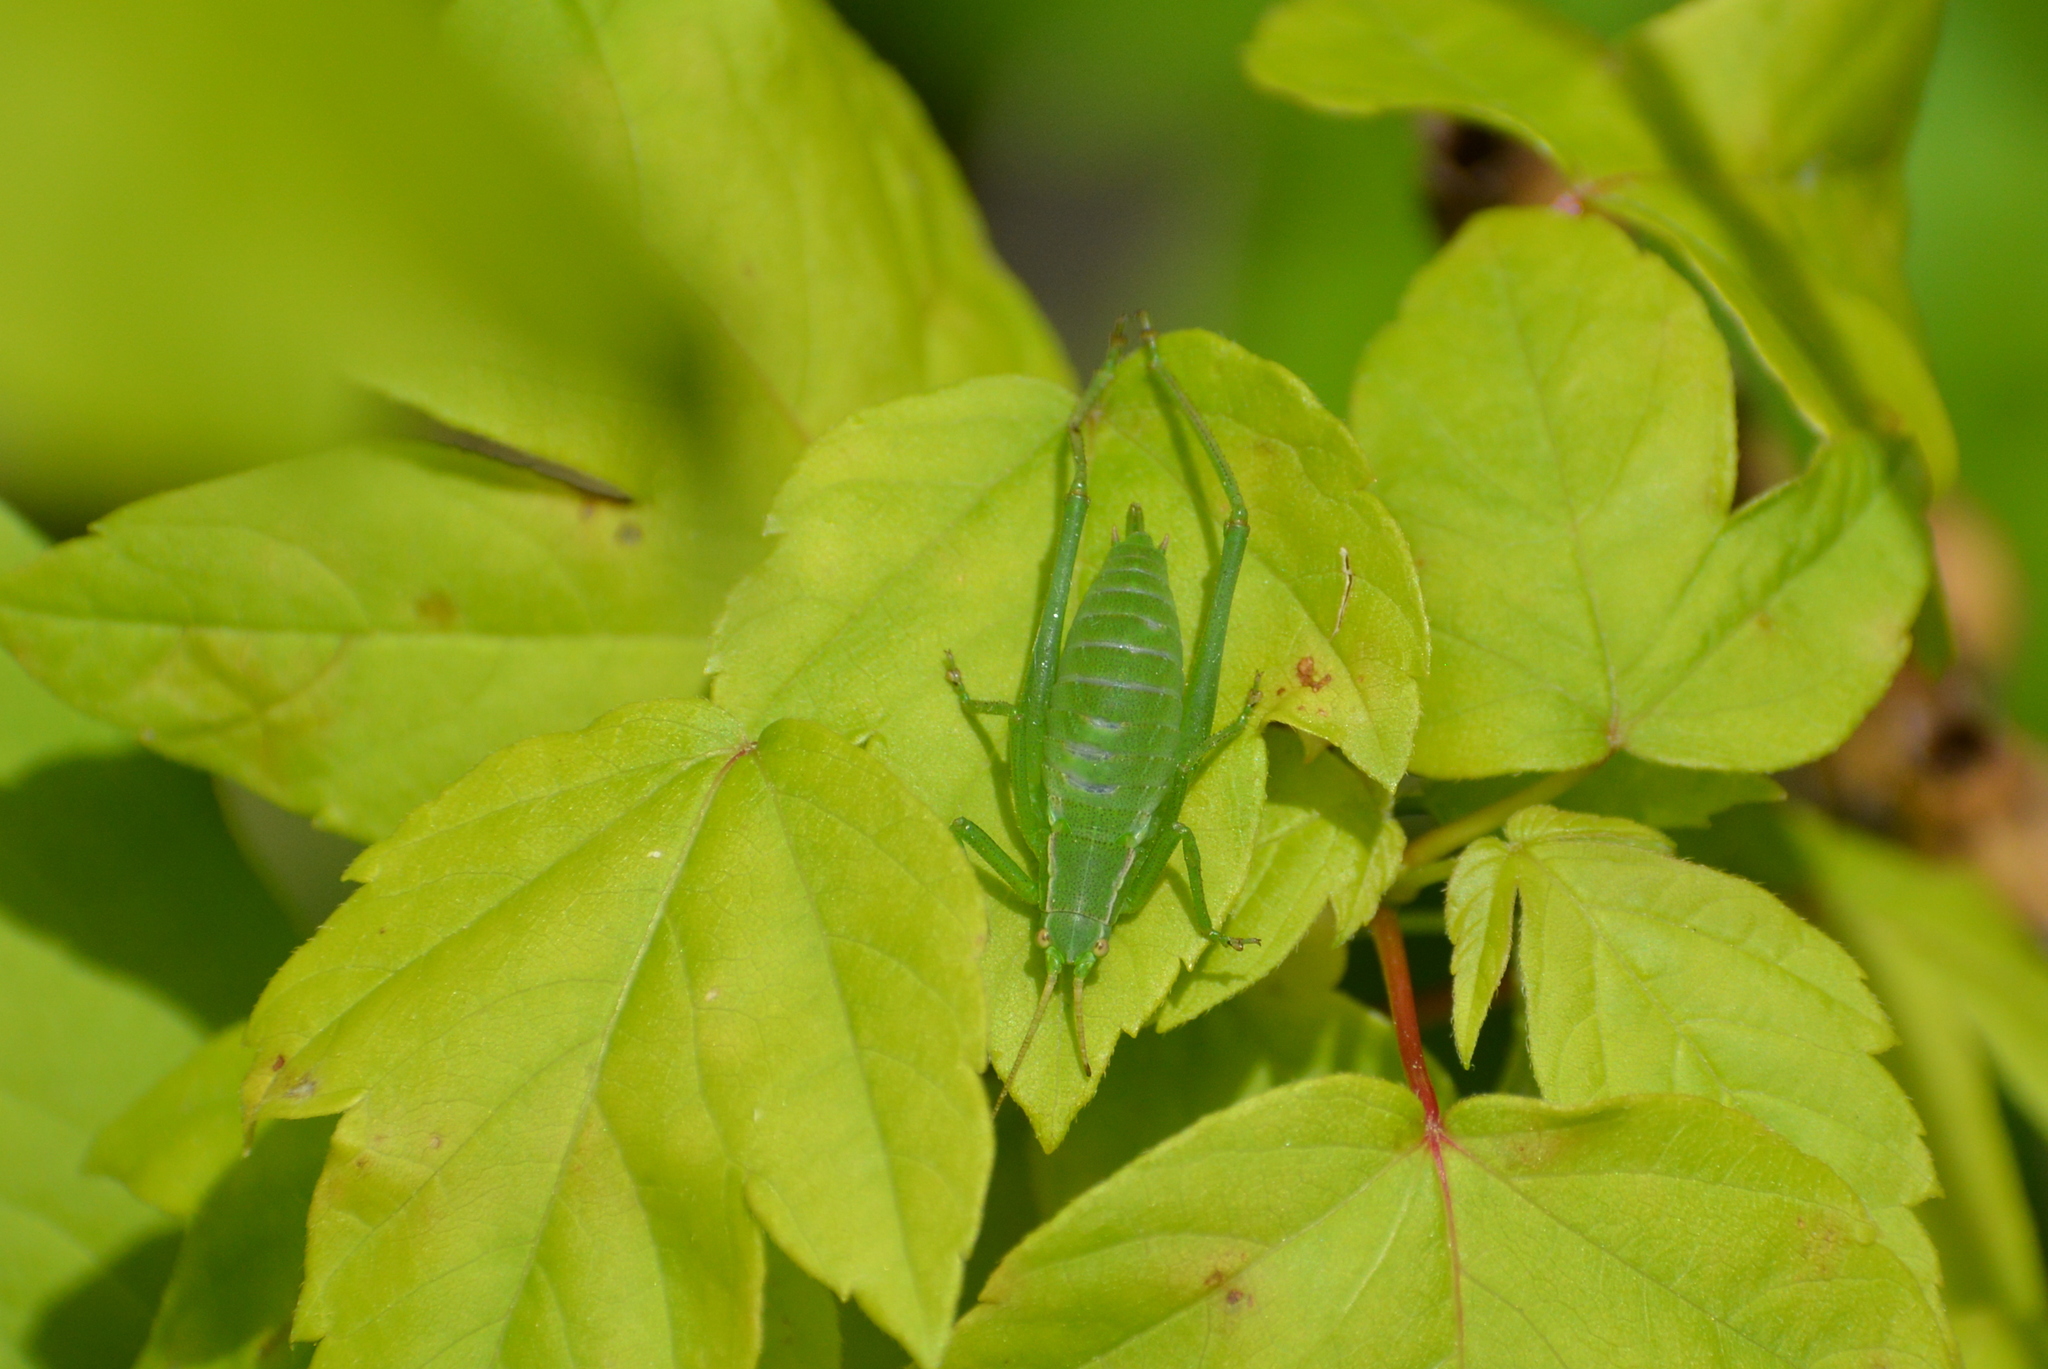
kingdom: Animalia
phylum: Arthropoda
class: Insecta
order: Orthoptera
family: Tettigoniidae
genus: Isophya
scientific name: Isophya kraussii
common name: Krauss's plump bush-cricket
